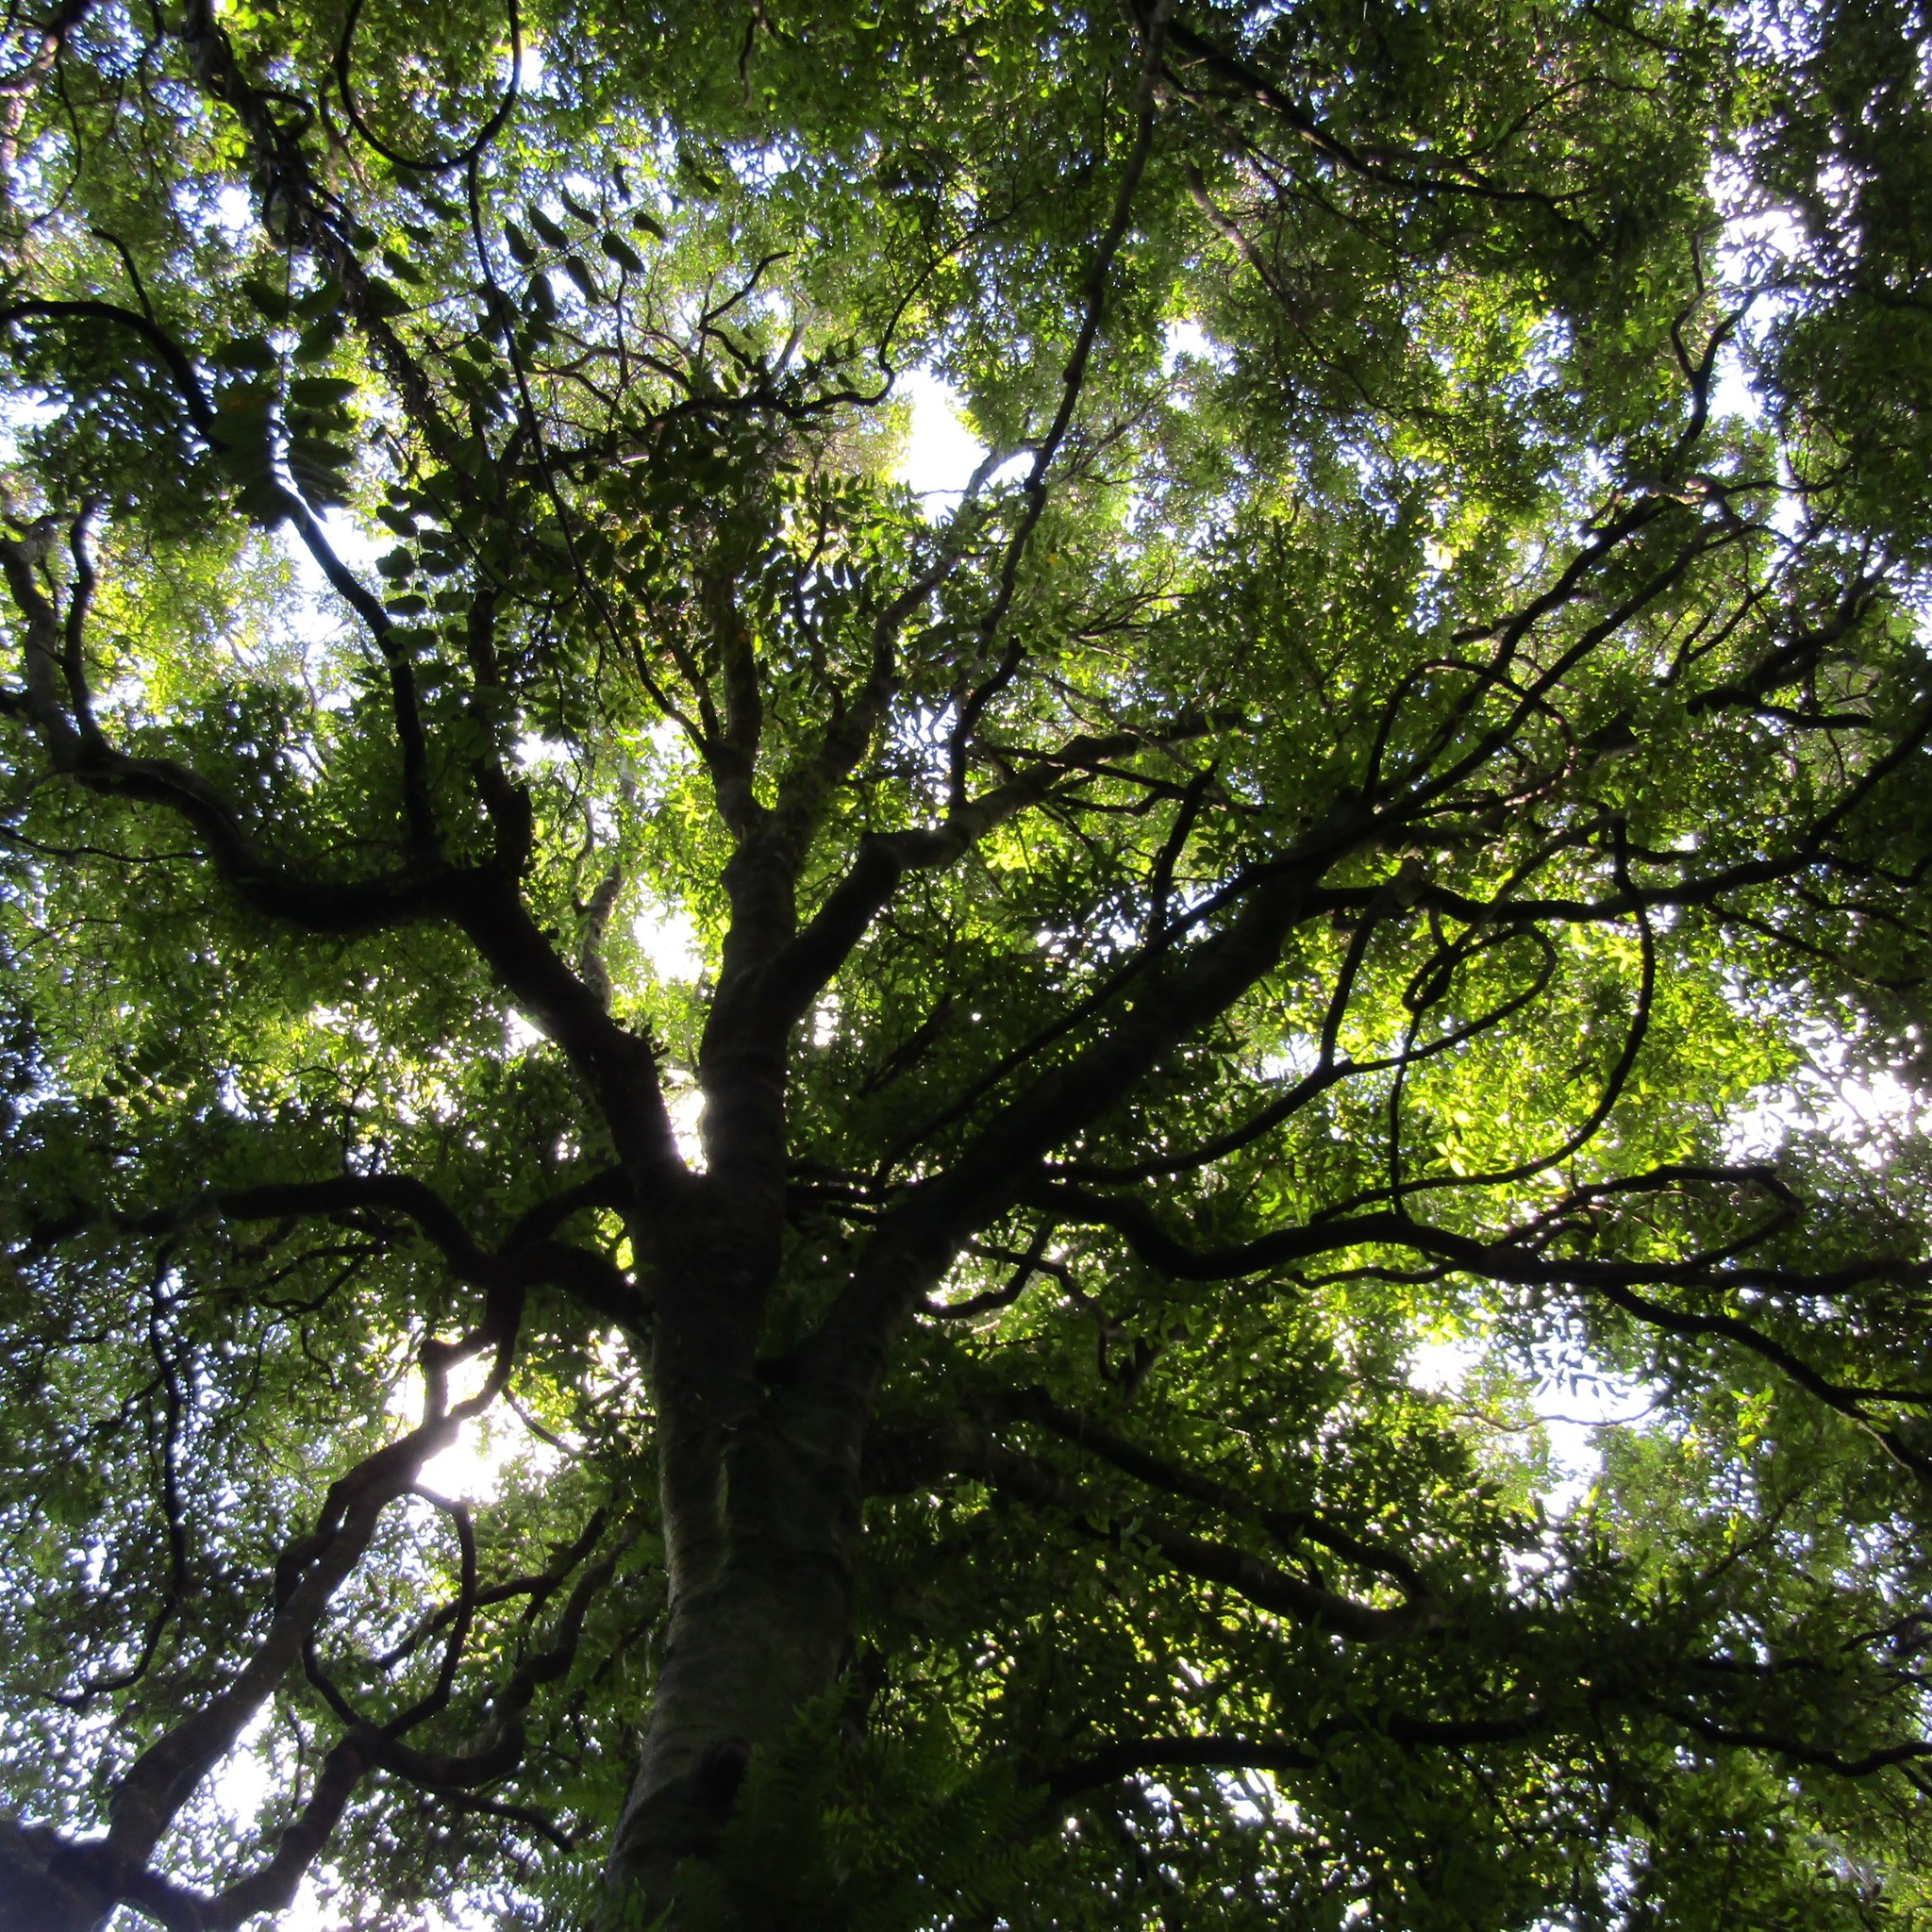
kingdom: Plantae
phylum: Tracheophyta
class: Magnoliopsida
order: Laurales
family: Lauraceae
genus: Beilschmiedia
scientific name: Beilschmiedia tawa
